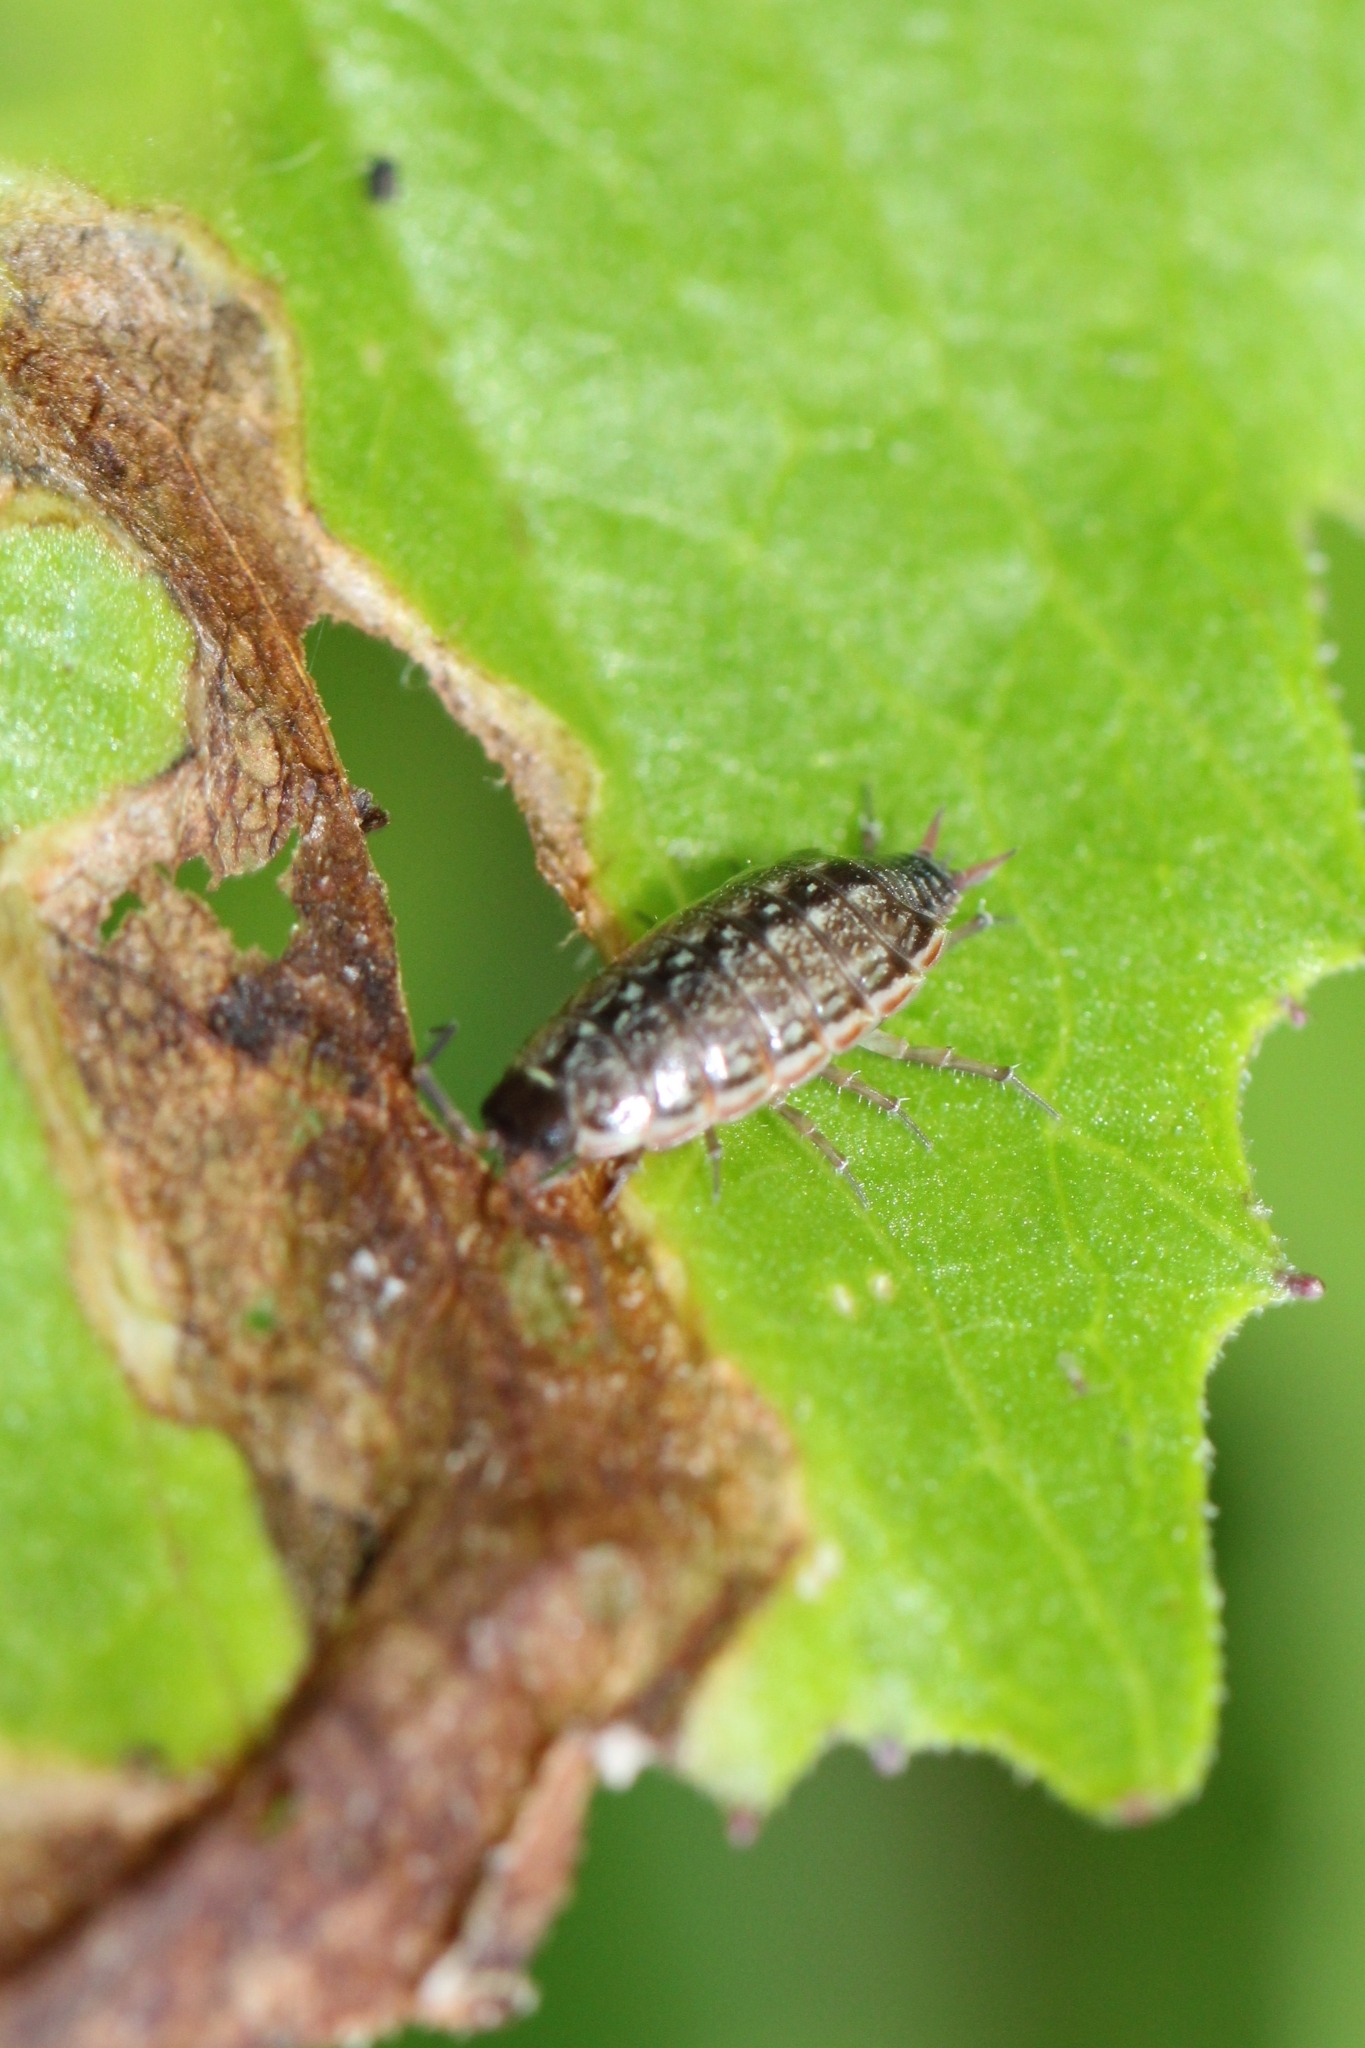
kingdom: Animalia
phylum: Arthropoda
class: Malacostraca
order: Isopoda
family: Philosciidae
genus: Philoscia
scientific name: Philoscia muscorum
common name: Common striped woodlouse
